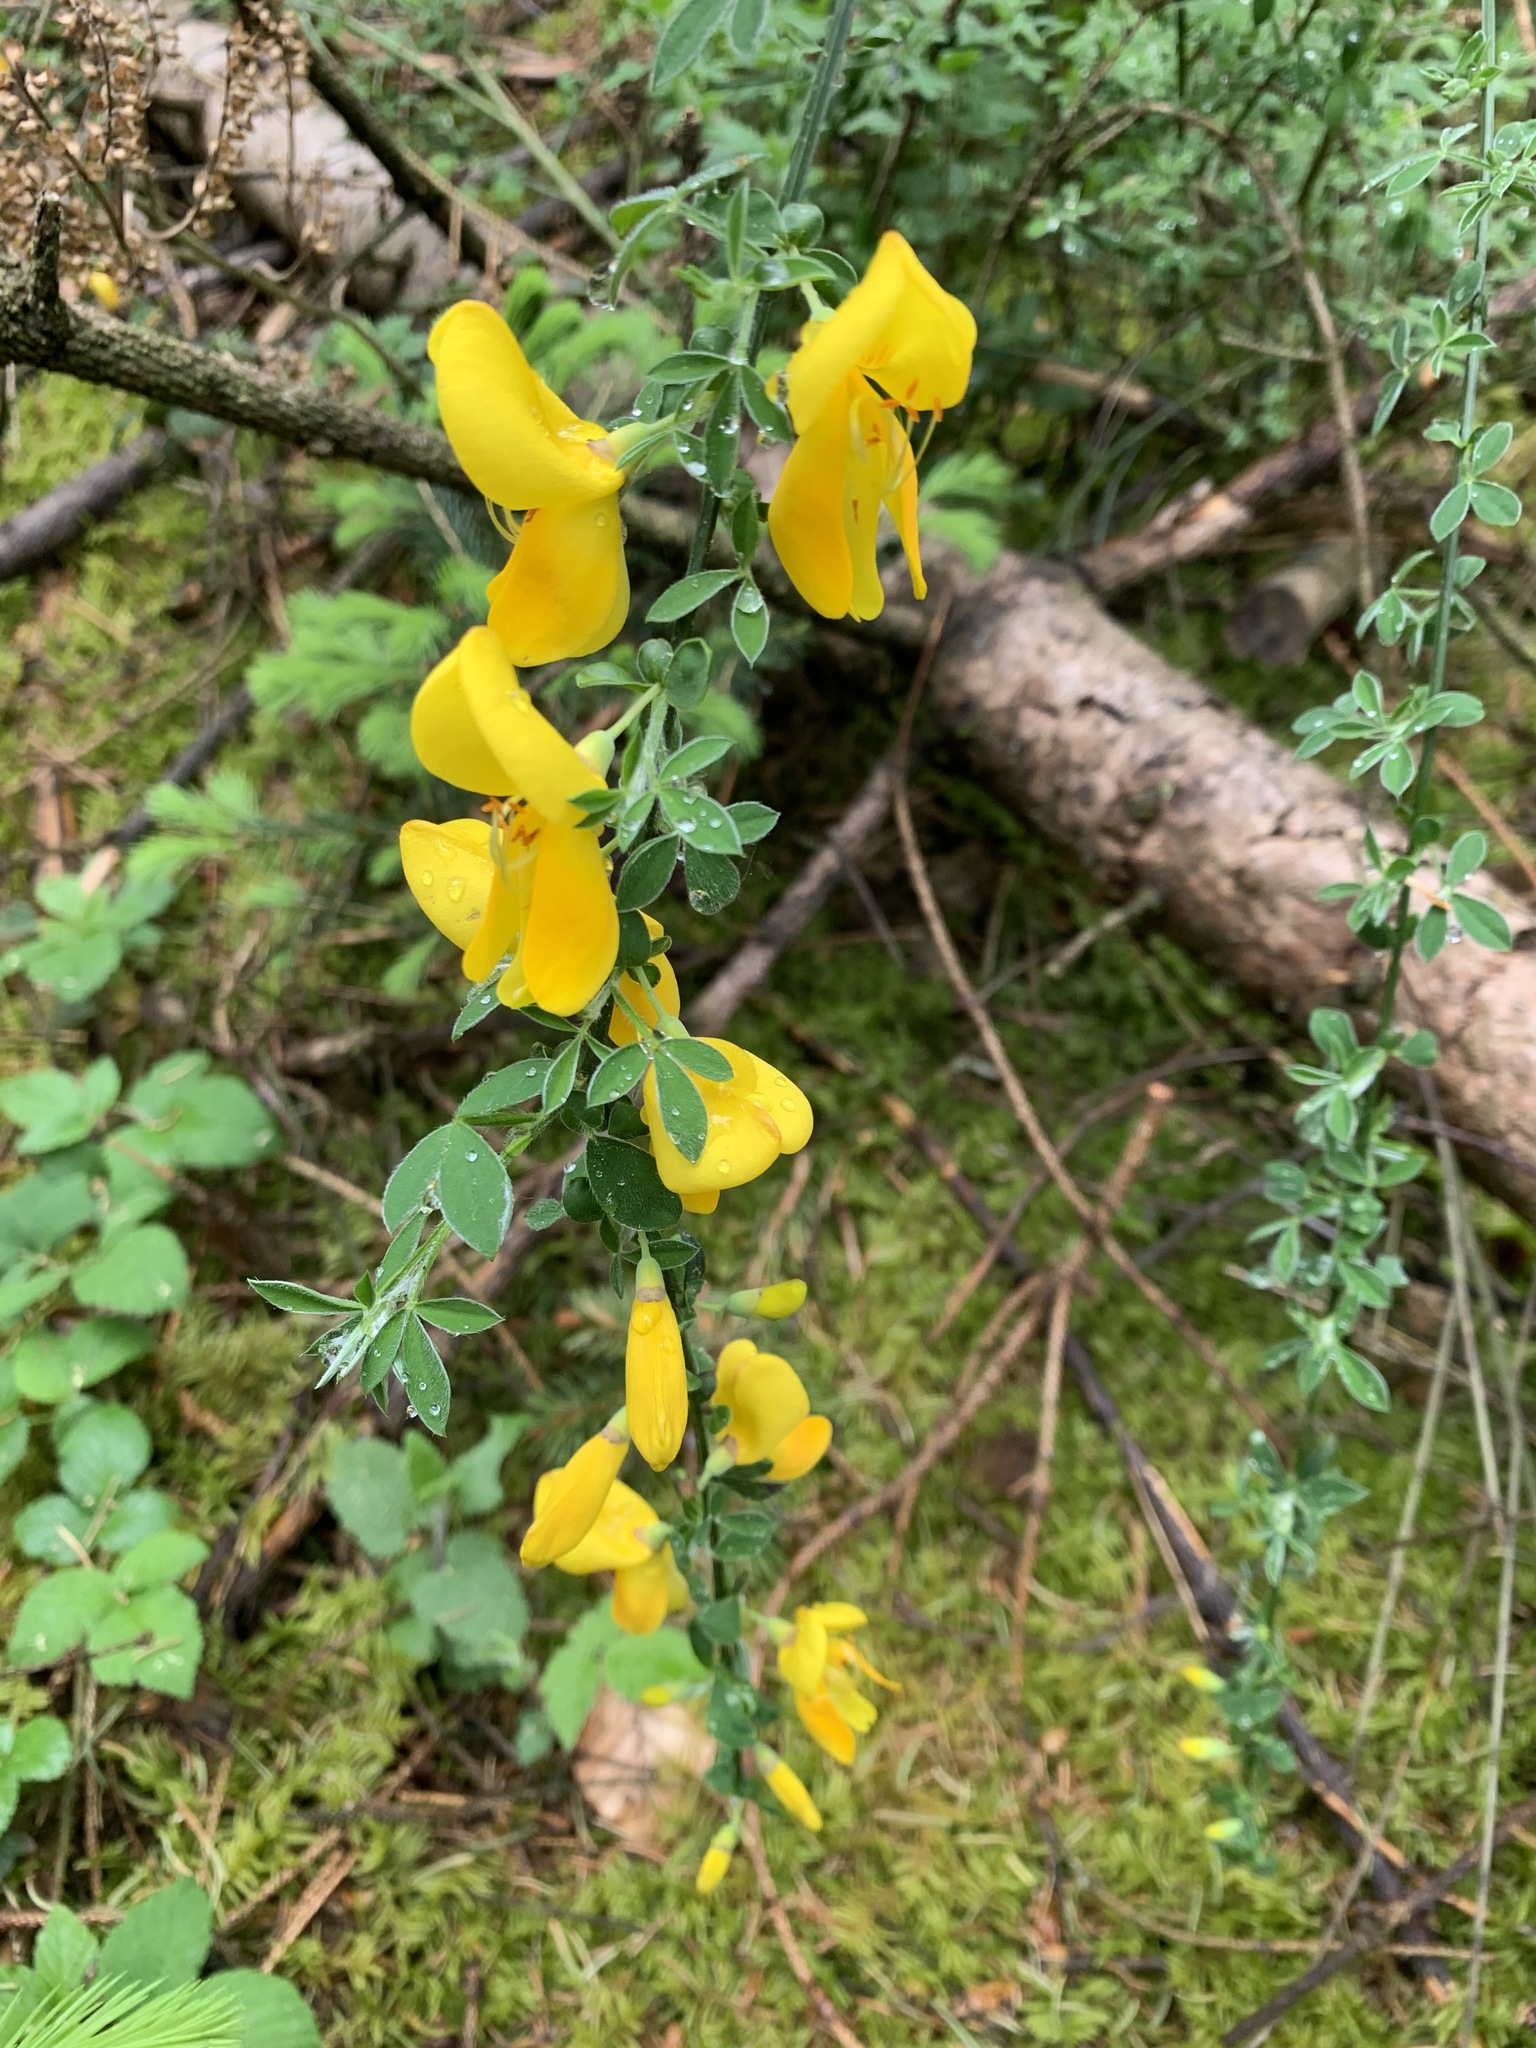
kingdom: Plantae
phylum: Tracheophyta
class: Magnoliopsida
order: Fabales
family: Fabaceae
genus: Cytisus
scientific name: Cytisus scoparius
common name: Scotch broom
